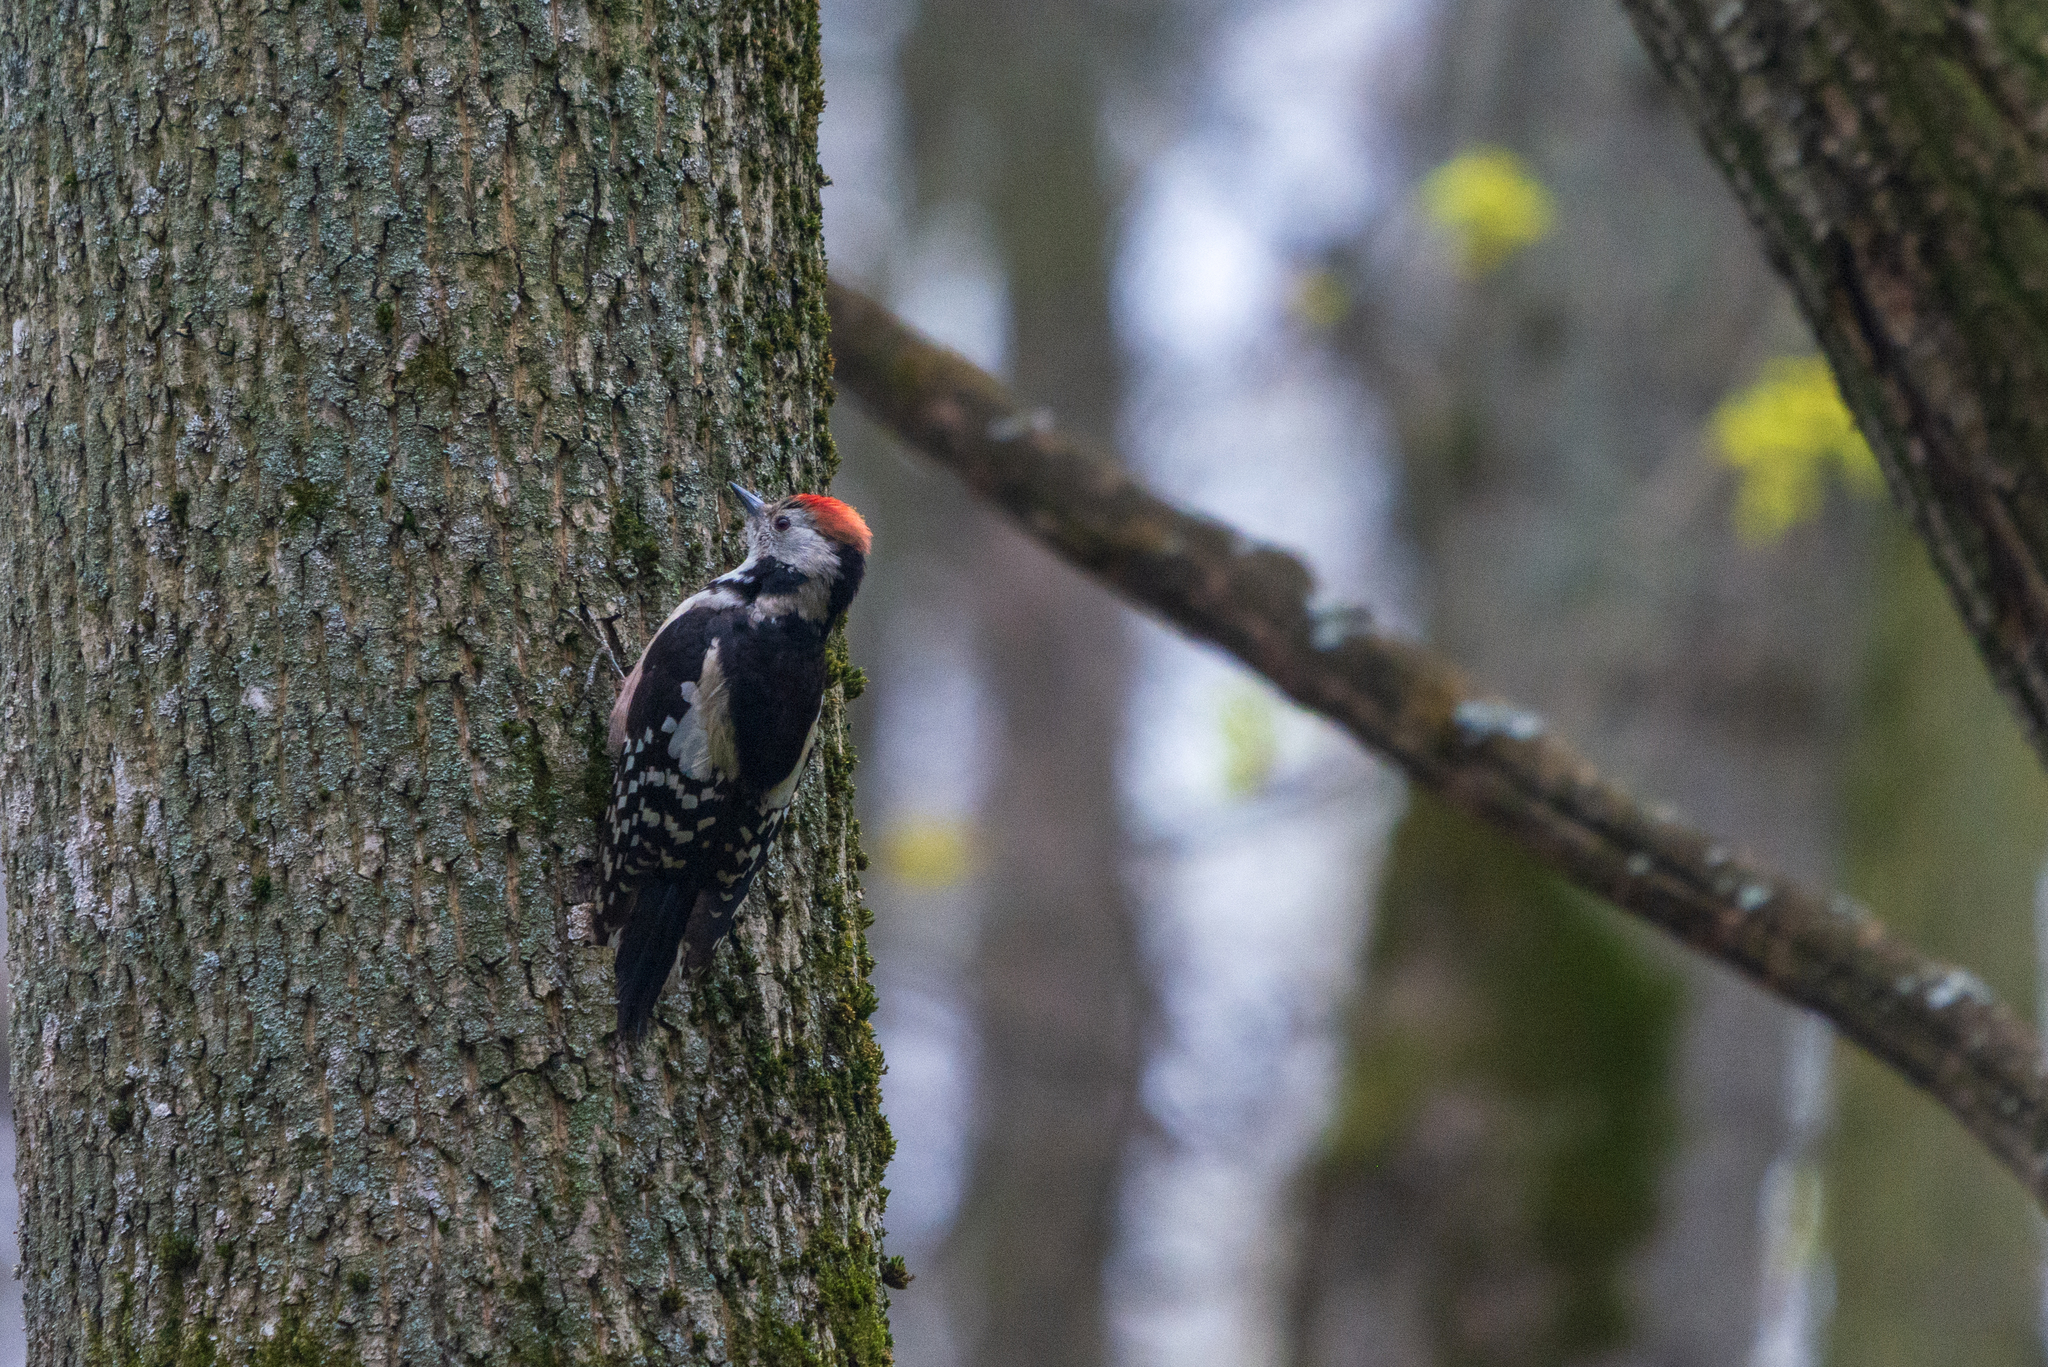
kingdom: Animalia
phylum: Chordata
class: Aves
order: Piciformes
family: Picidae
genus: Dendrocoptes
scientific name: Dendrocoptes medius
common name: Middle spotted woodpecker
